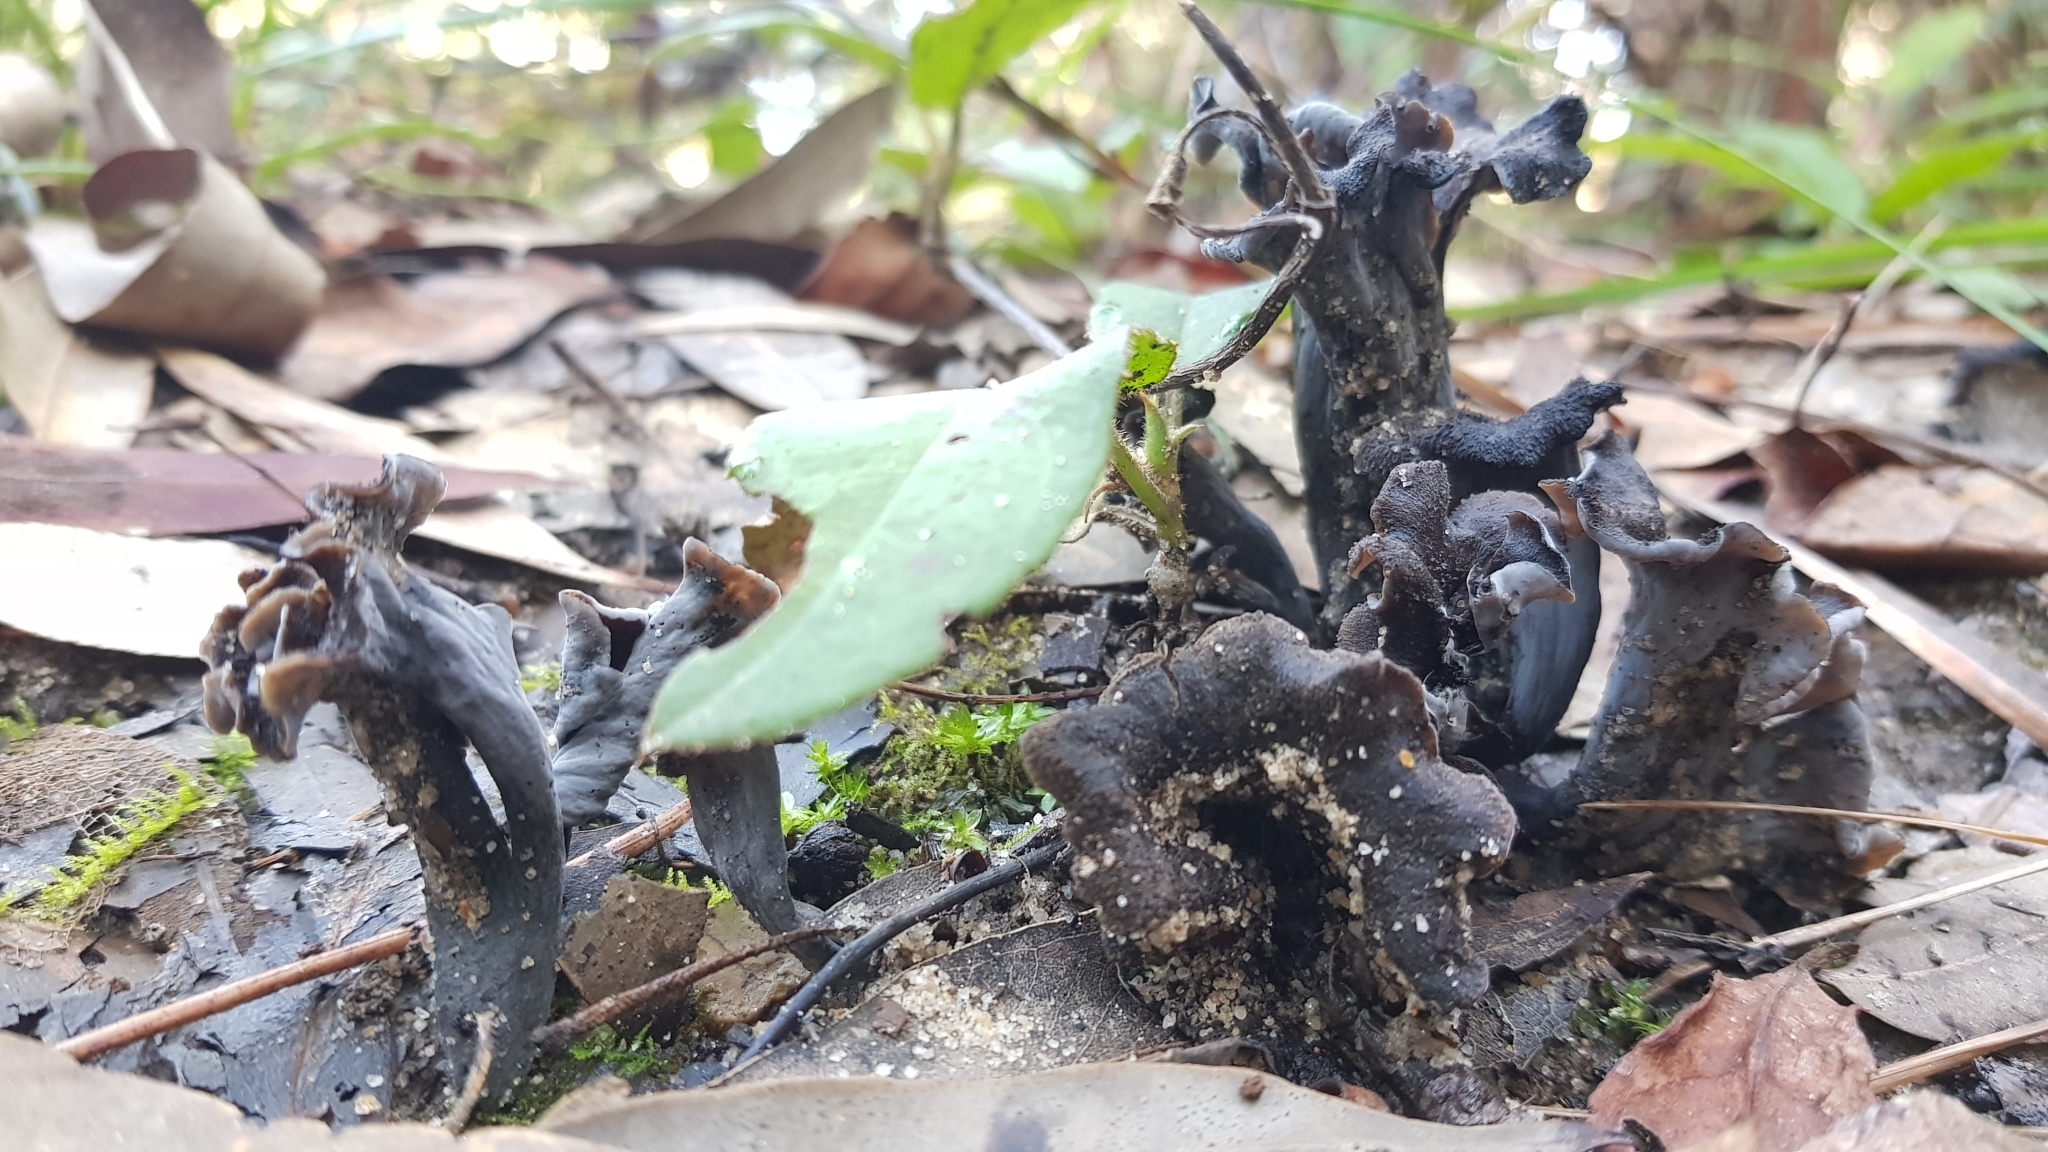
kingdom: Fungi
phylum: Basidiomycota
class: Agaricomycetes
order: Cantharellales
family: Hydnaceae
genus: Craterellus
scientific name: Craterellus cornucopioides
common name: Horn of plenty
